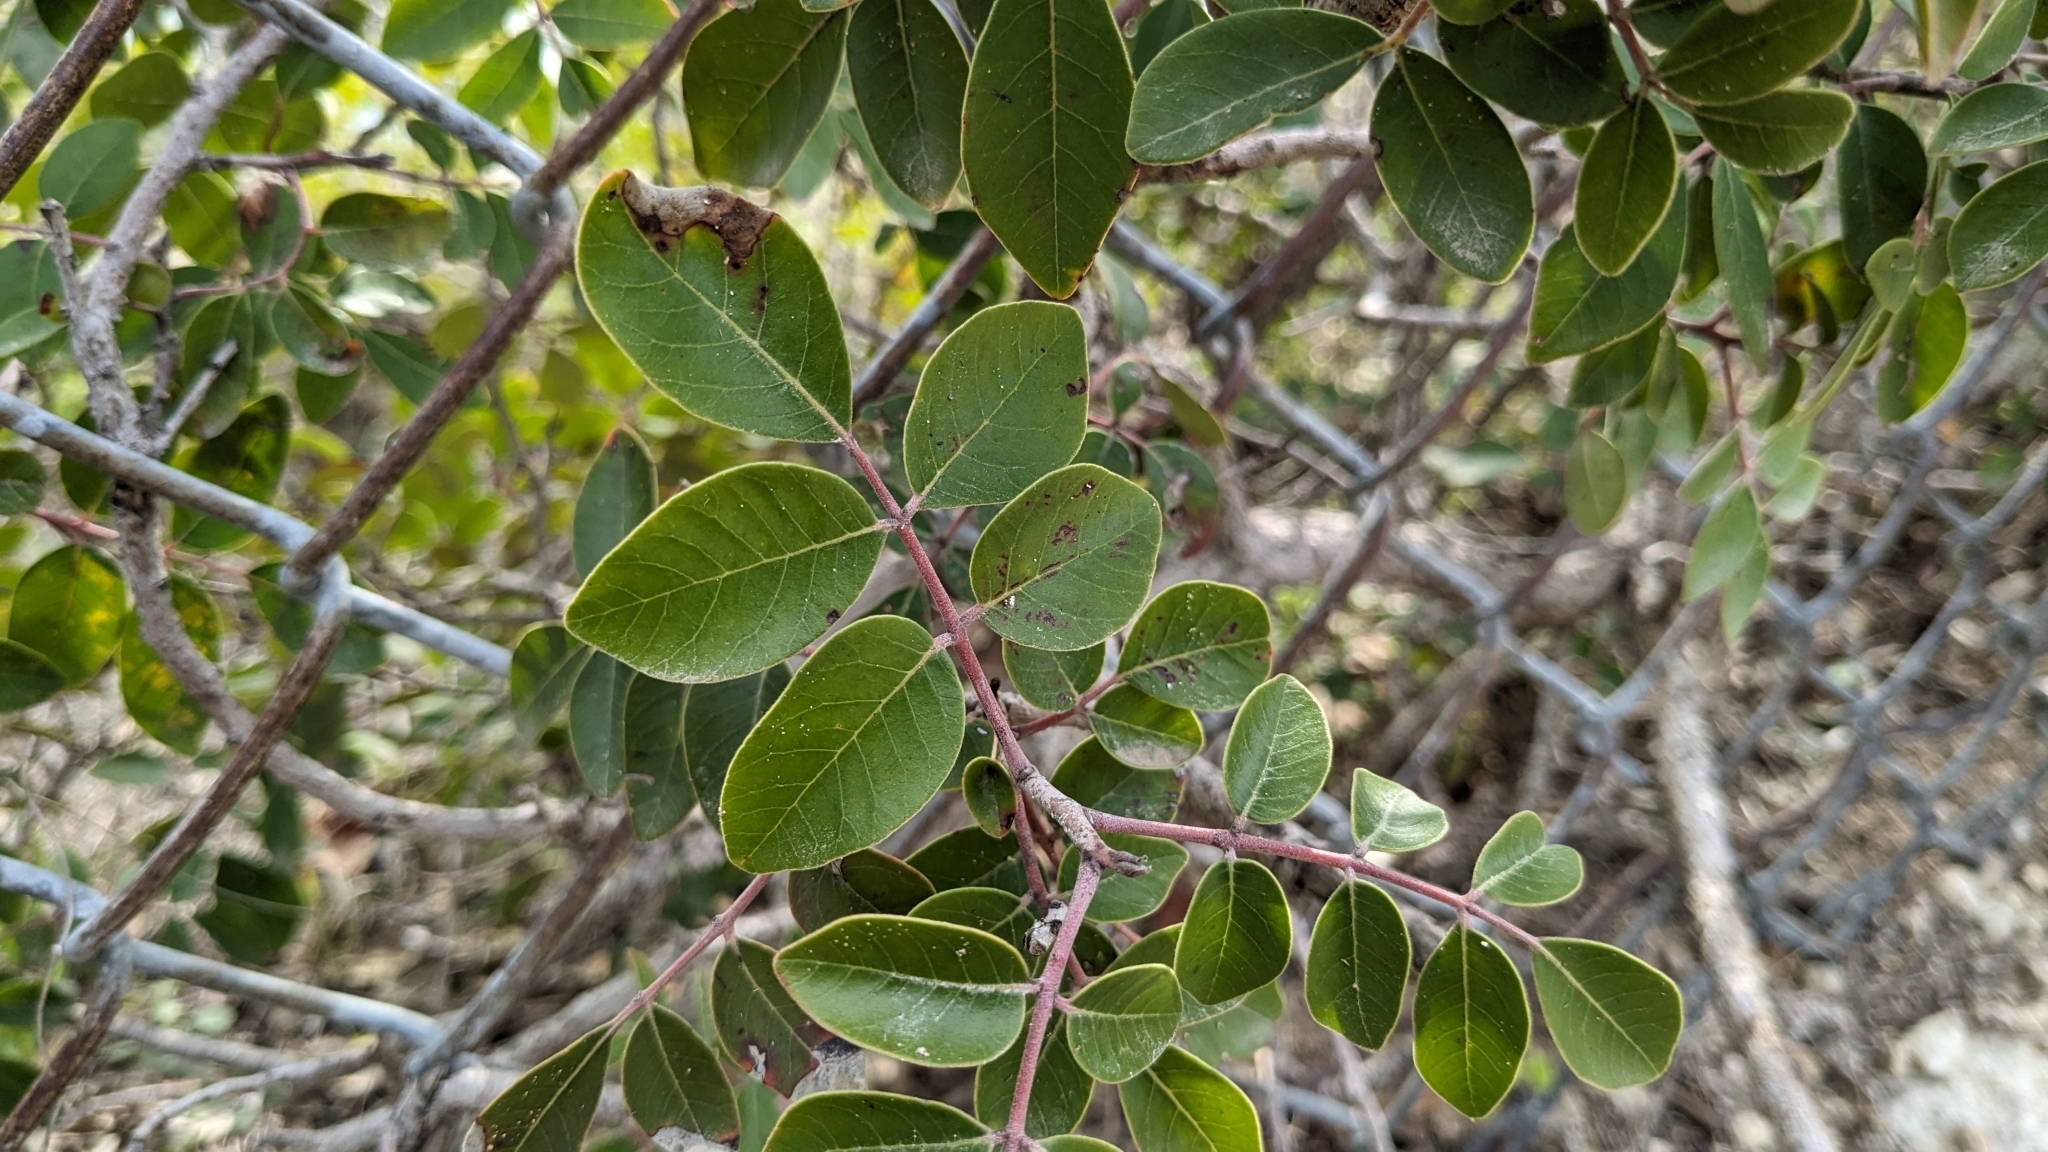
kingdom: Plantae
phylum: Tracheophyta
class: Magnoliopsida
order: Sapindales
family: Anacardiaceae
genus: Rhus
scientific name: Rhus virens
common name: Evergreen sumac
